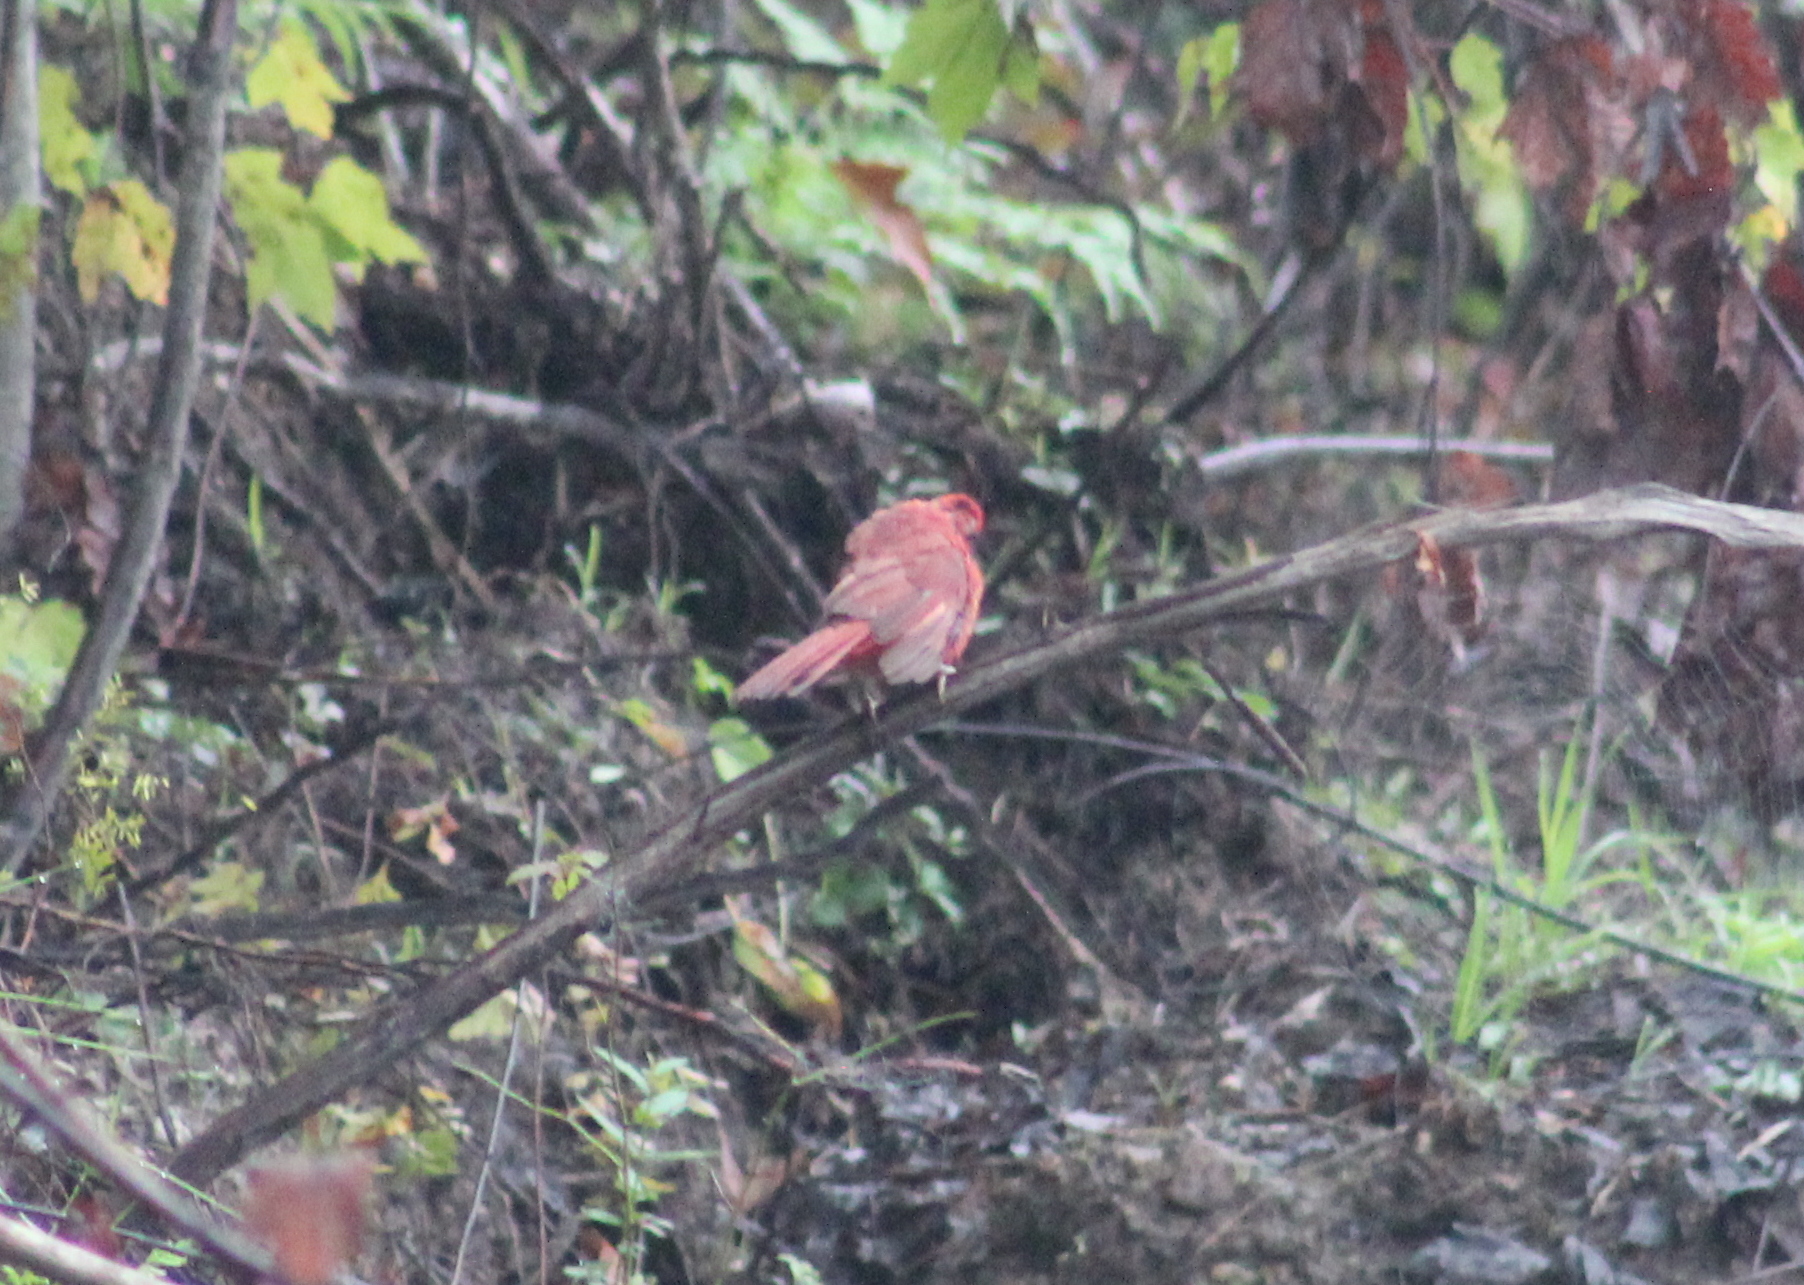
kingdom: Animalia
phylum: Chordata
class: Aves
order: Passeriformes
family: Cardinalidae
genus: Cardinalis
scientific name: Cardinalis cardinalis
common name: Northern cardinal
